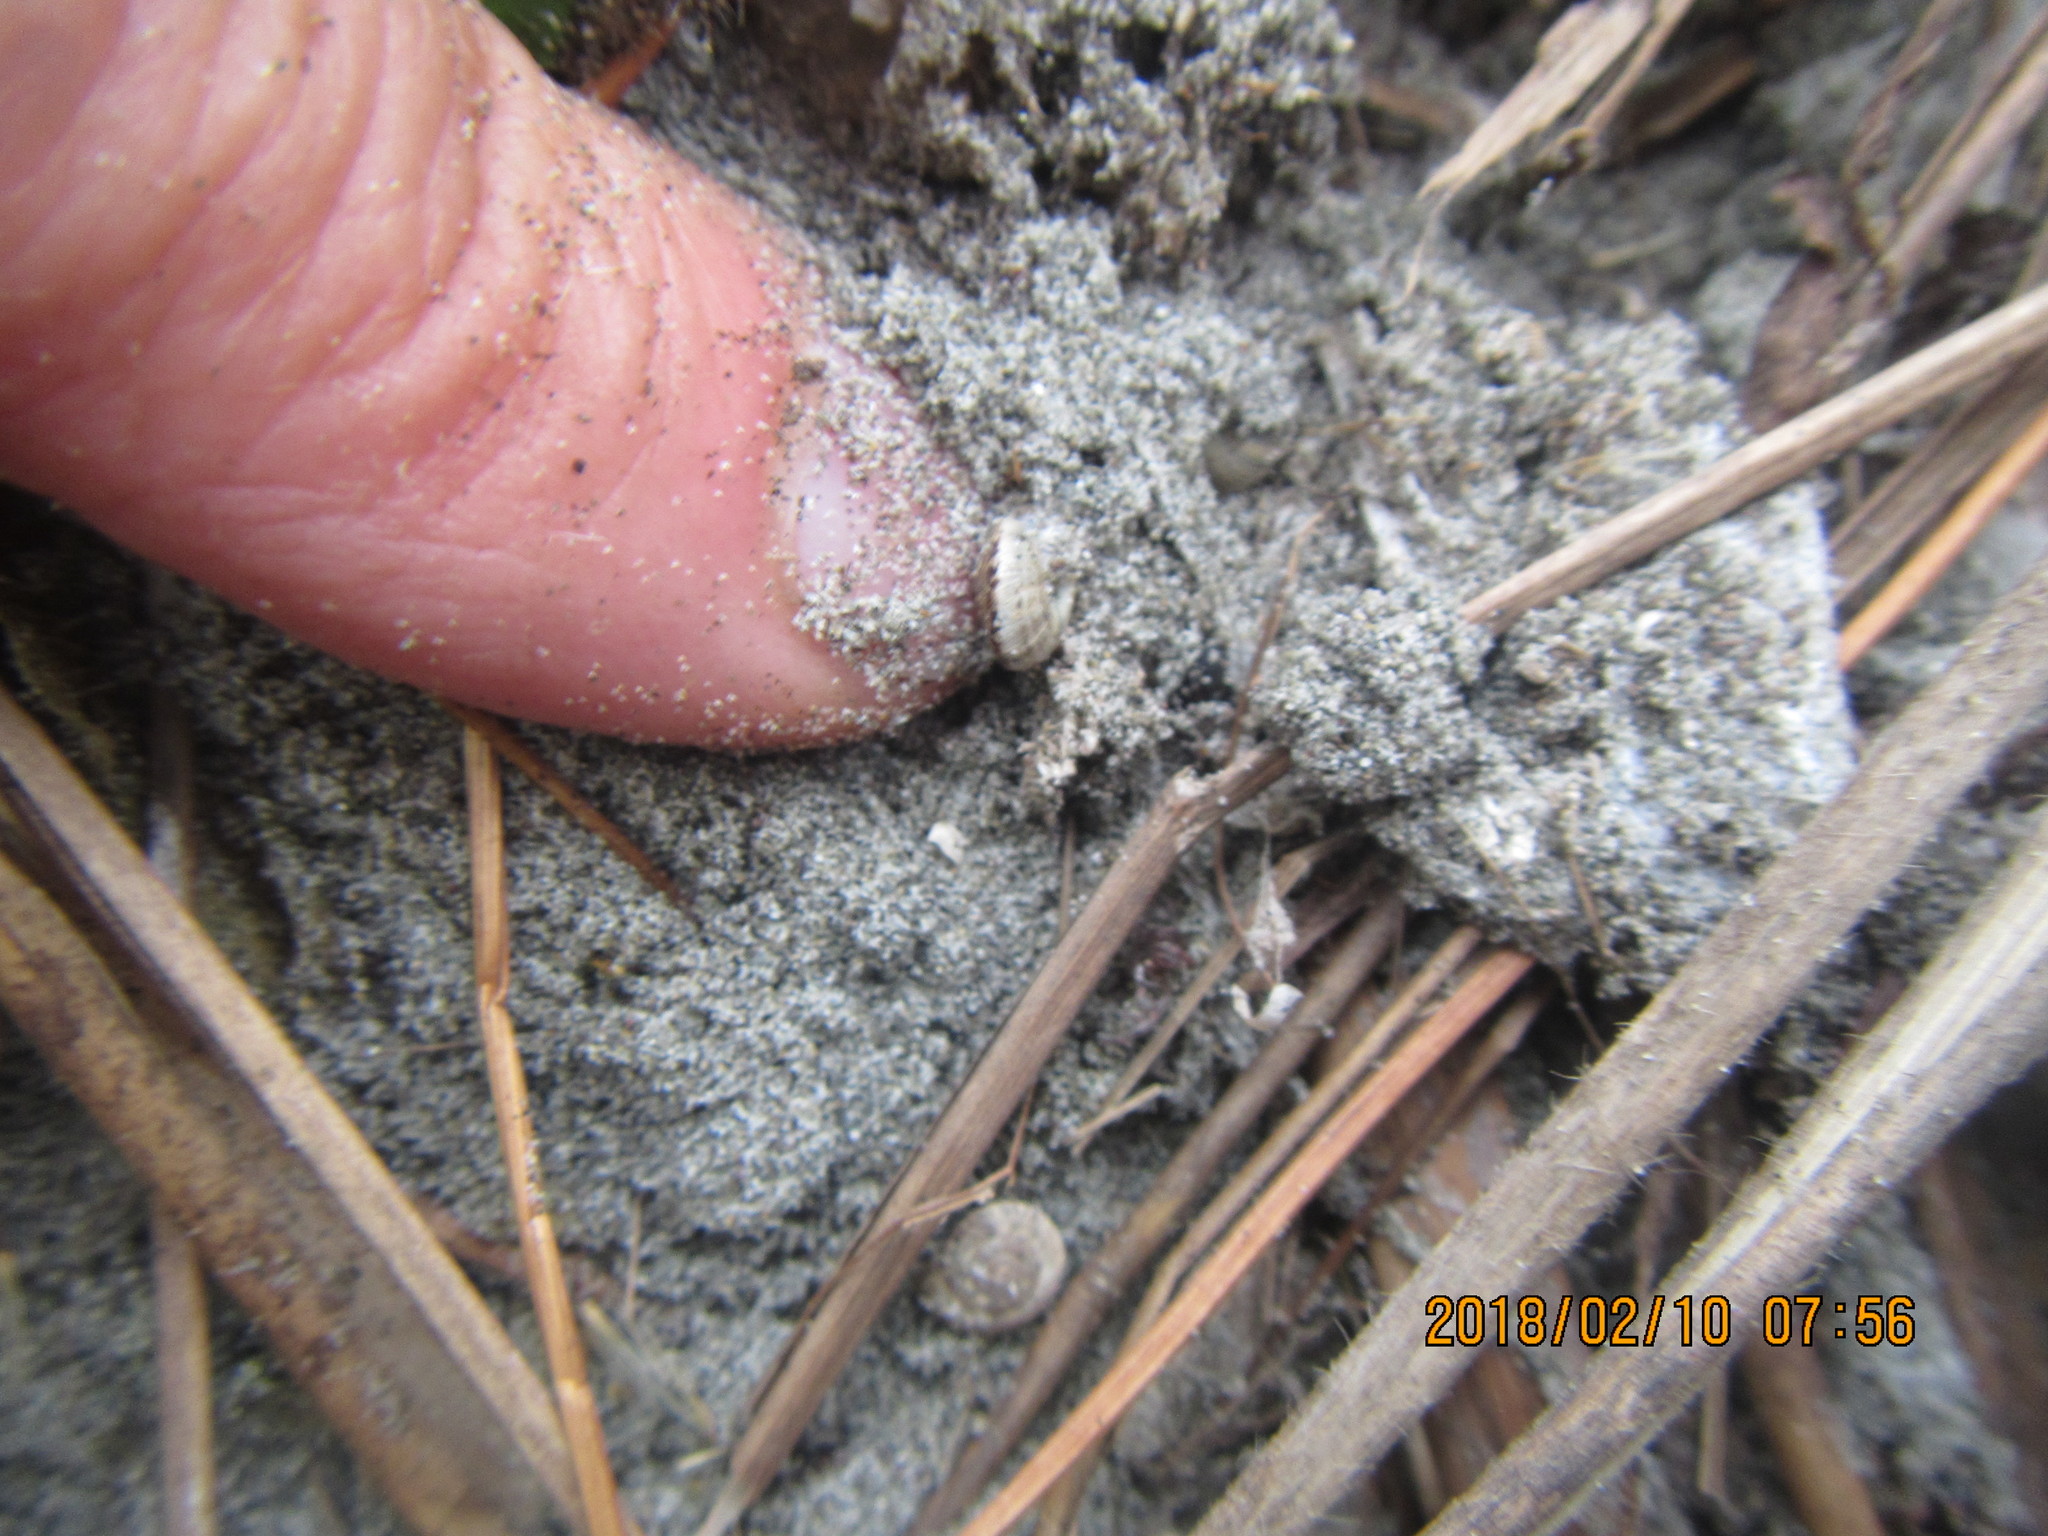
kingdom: Animalia
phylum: Mollusca
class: Gastropoda
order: Stylommatophora
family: Geomitridae
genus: Xeroplexa
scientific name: Xeroplexa intersecta
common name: Wrinkled snail
